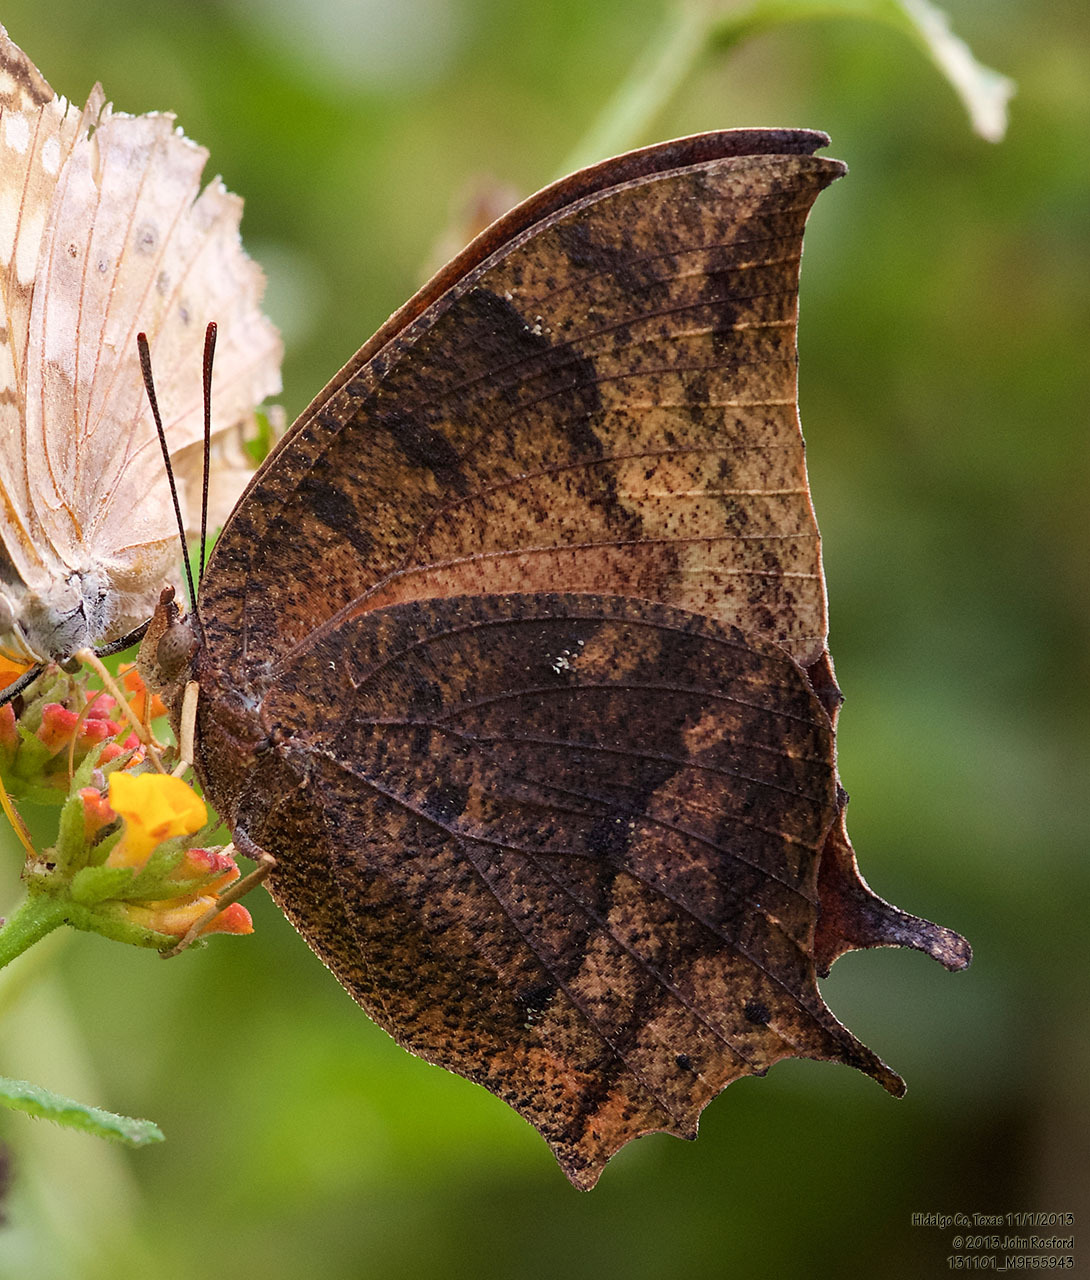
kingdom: Animalia
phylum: Arthropoda
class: Insecta
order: Lepidoptera
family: Nymphalidae
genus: Anaea
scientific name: Anaea aidea
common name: Tropical leafwing
